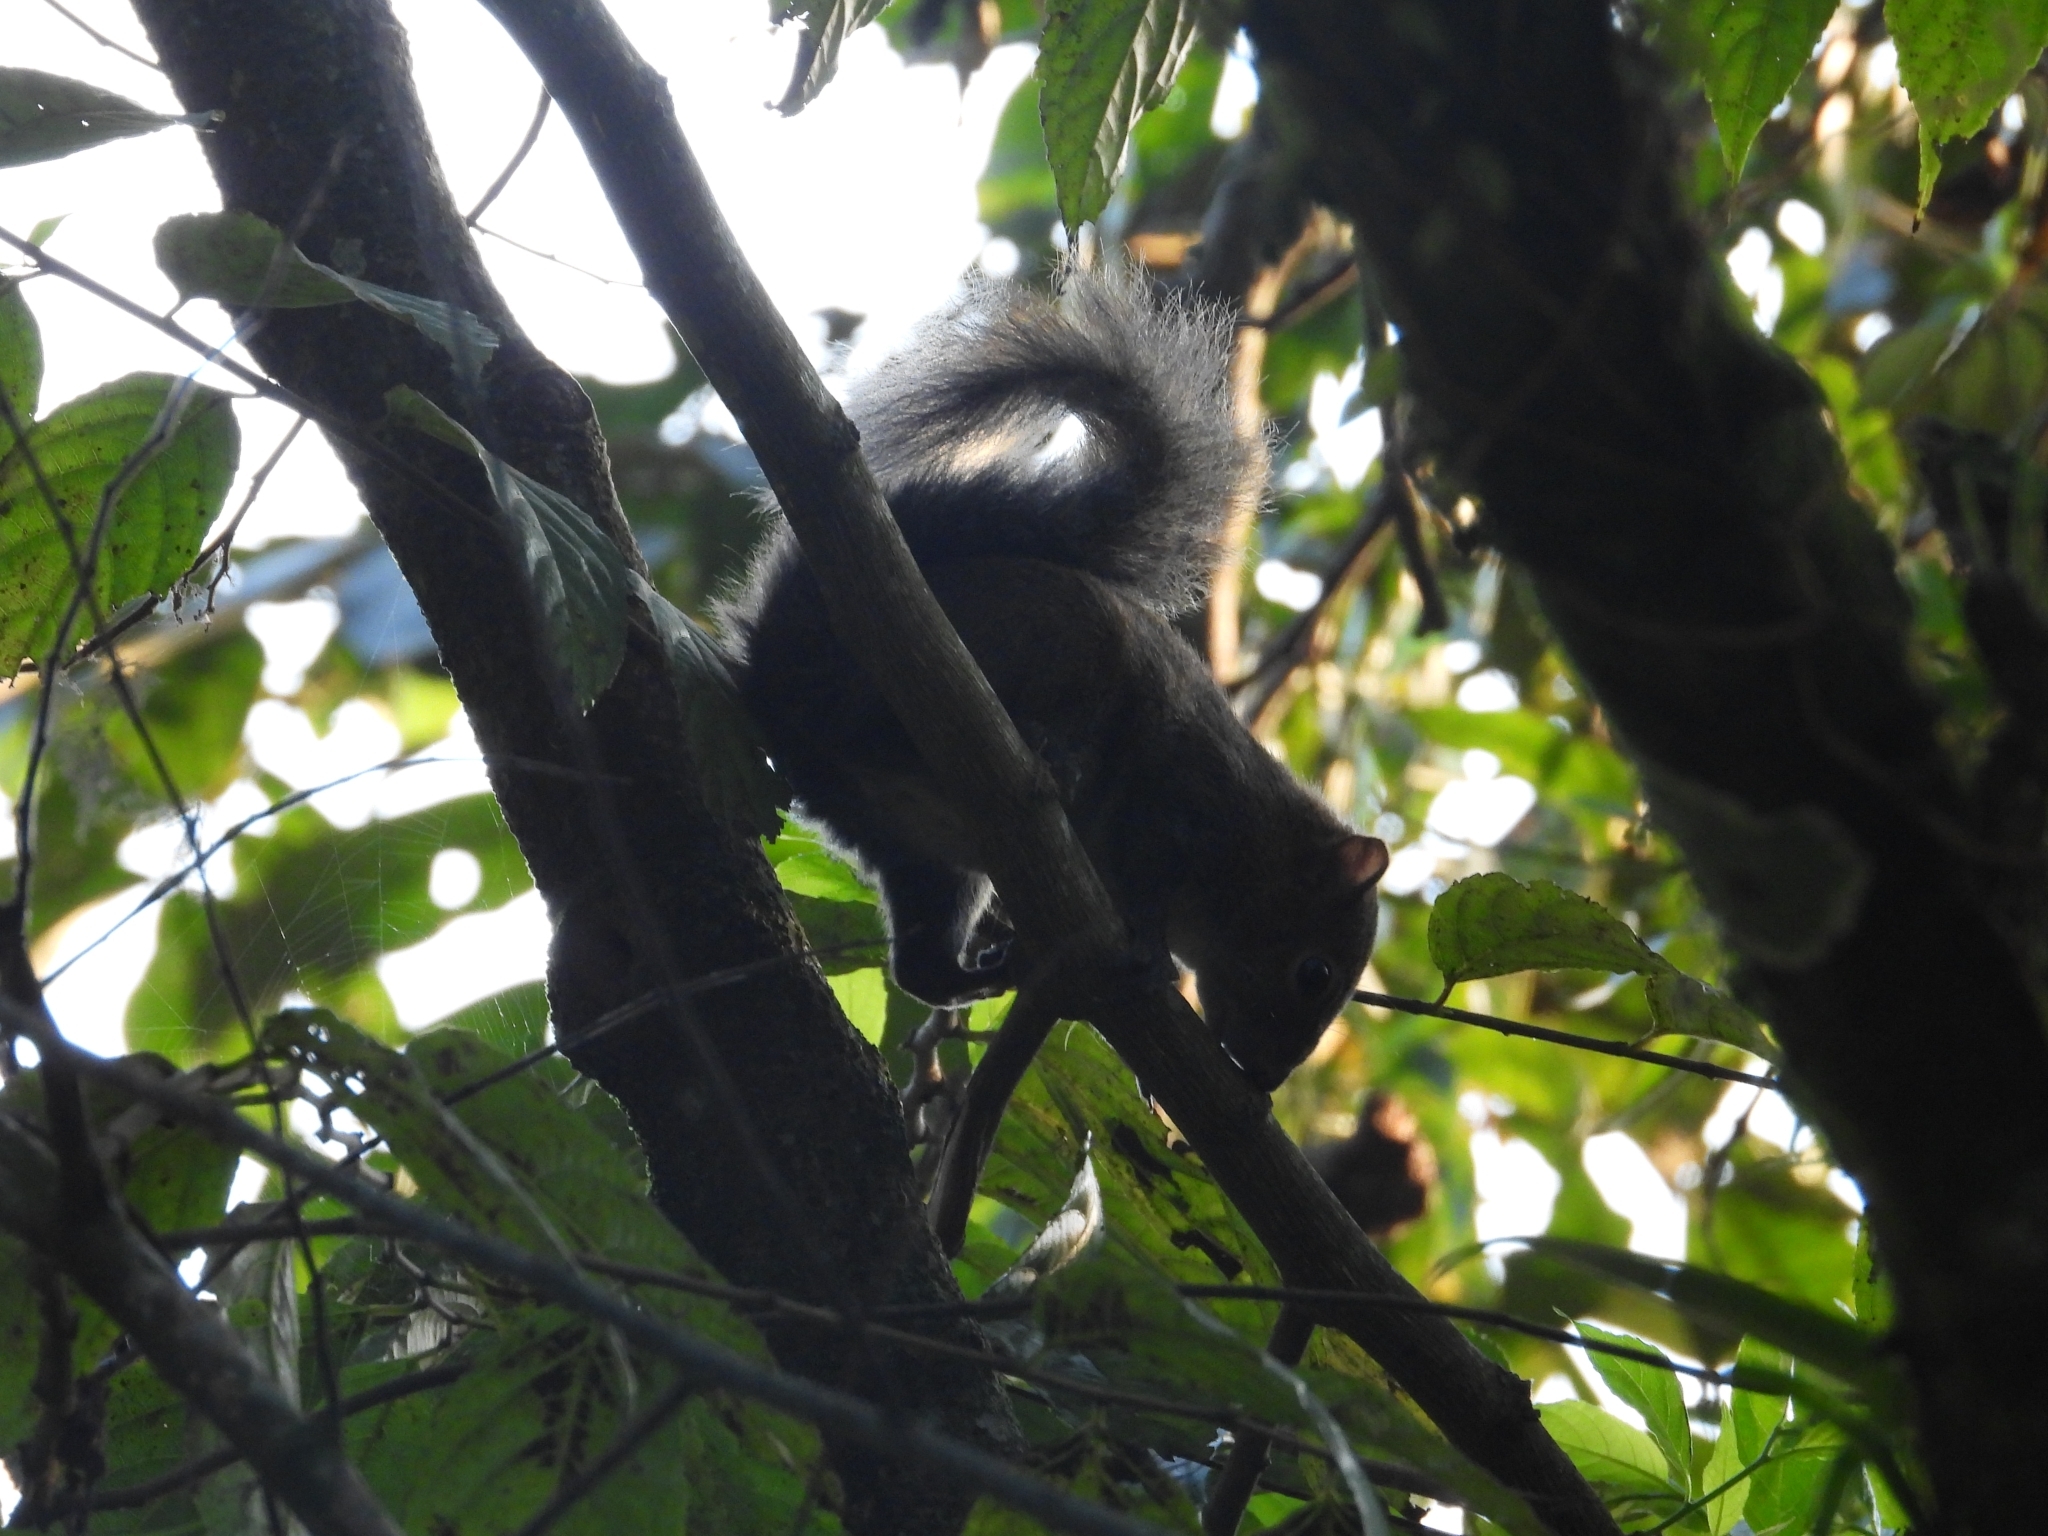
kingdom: Animalia
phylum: Chordata
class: Mammalia
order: Rodentia
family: Sciuridae
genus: Sciurus
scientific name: Sciurus deppei
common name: Deppe's squirrel
